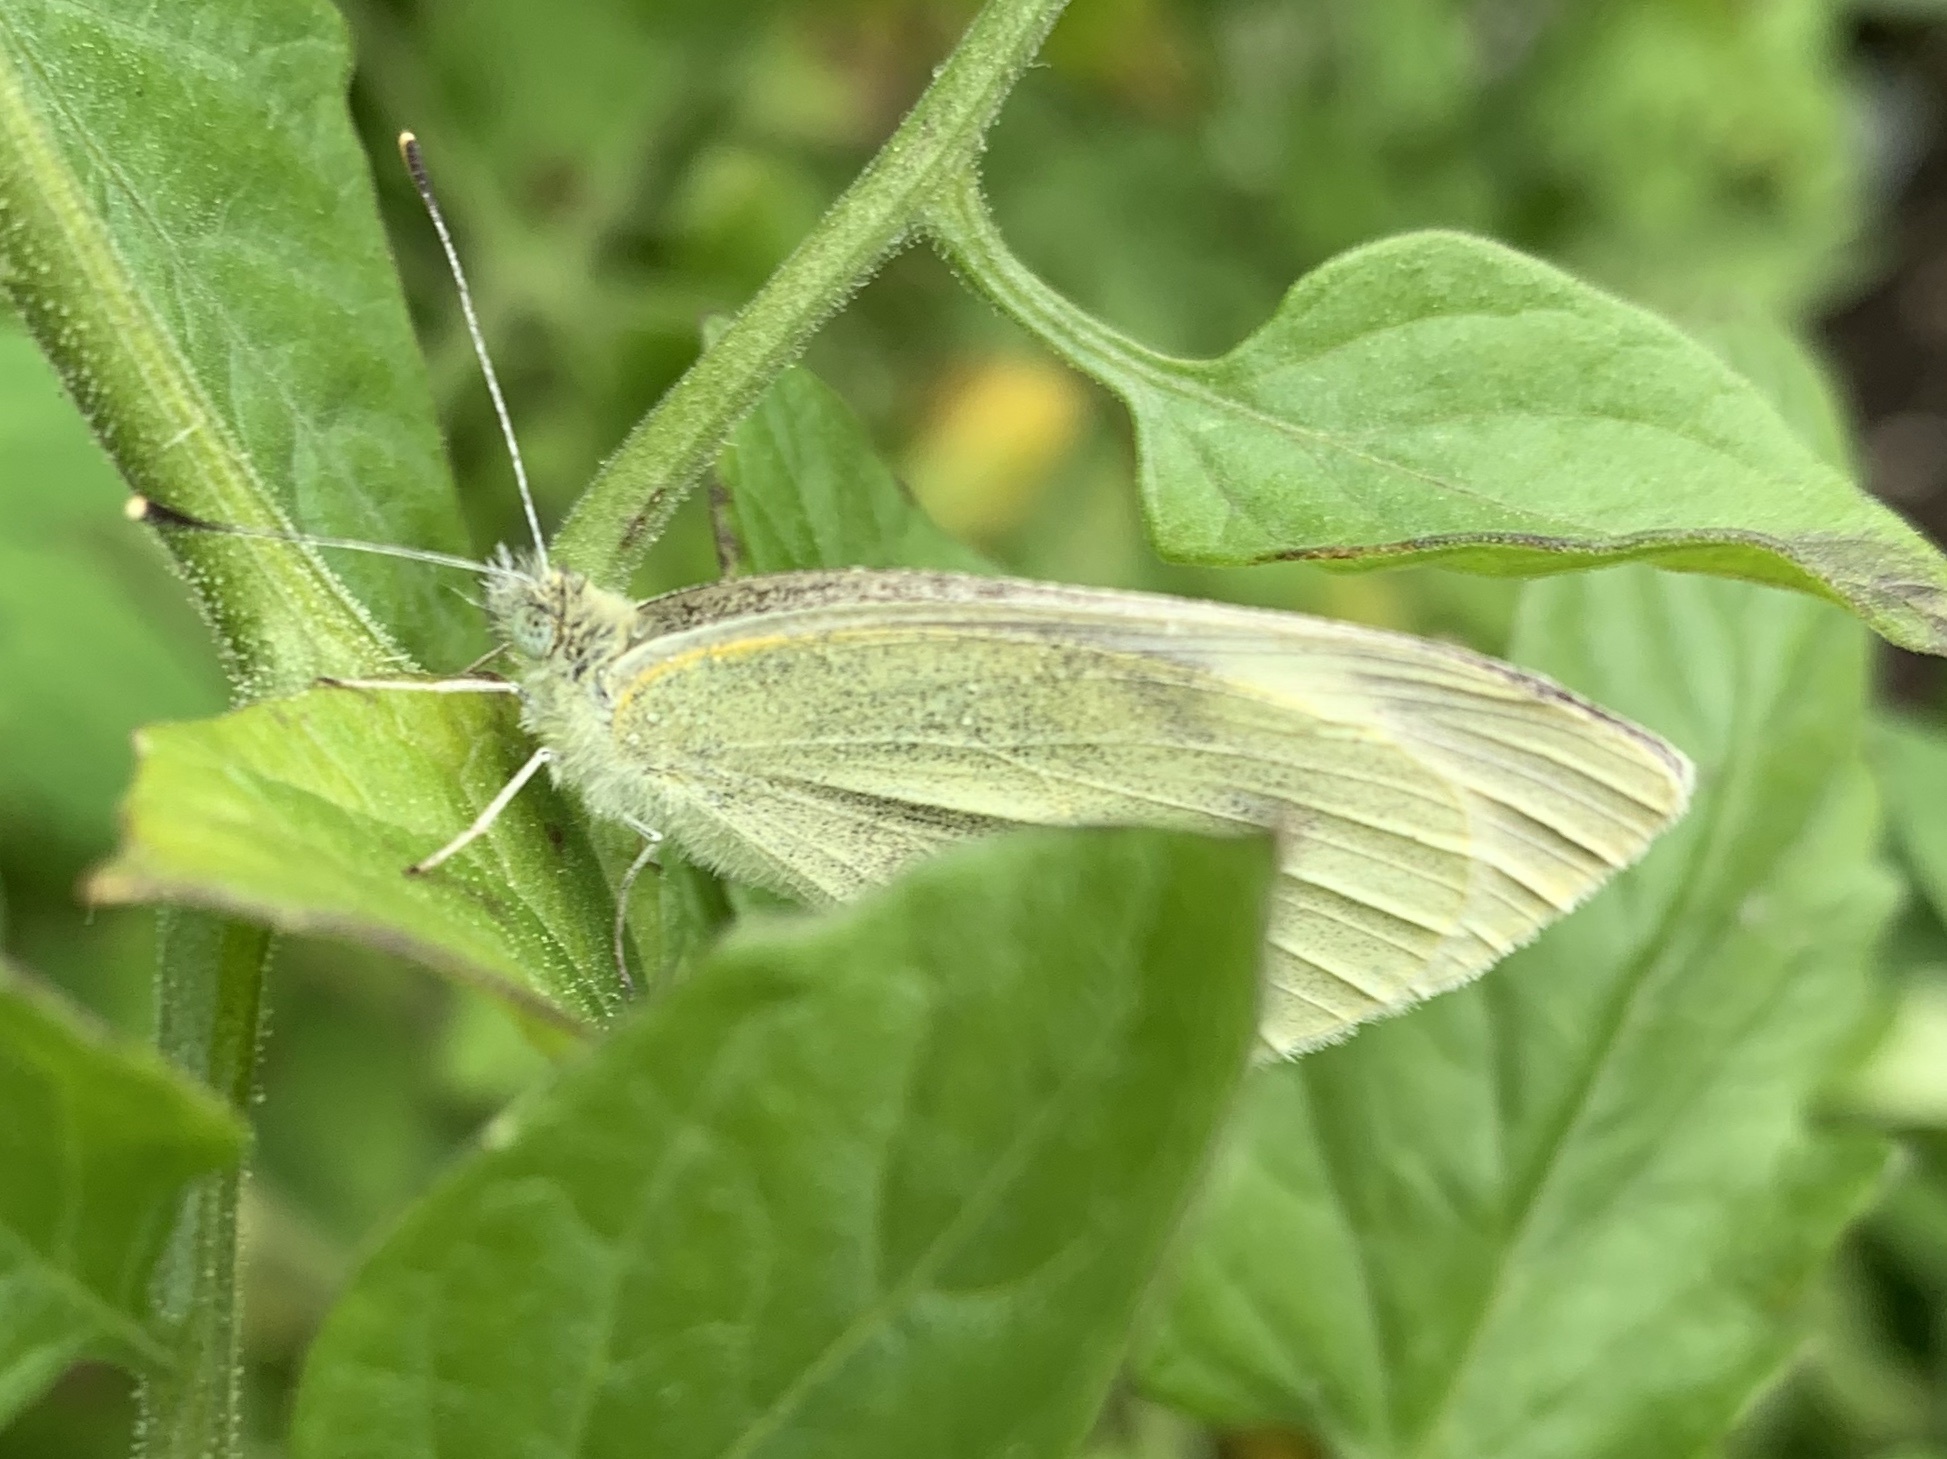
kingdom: Animalia
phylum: Arthropoda
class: Insecta
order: Lepidoptera
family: Pieridae
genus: Pieris
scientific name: Pieris rapae
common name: Small white
